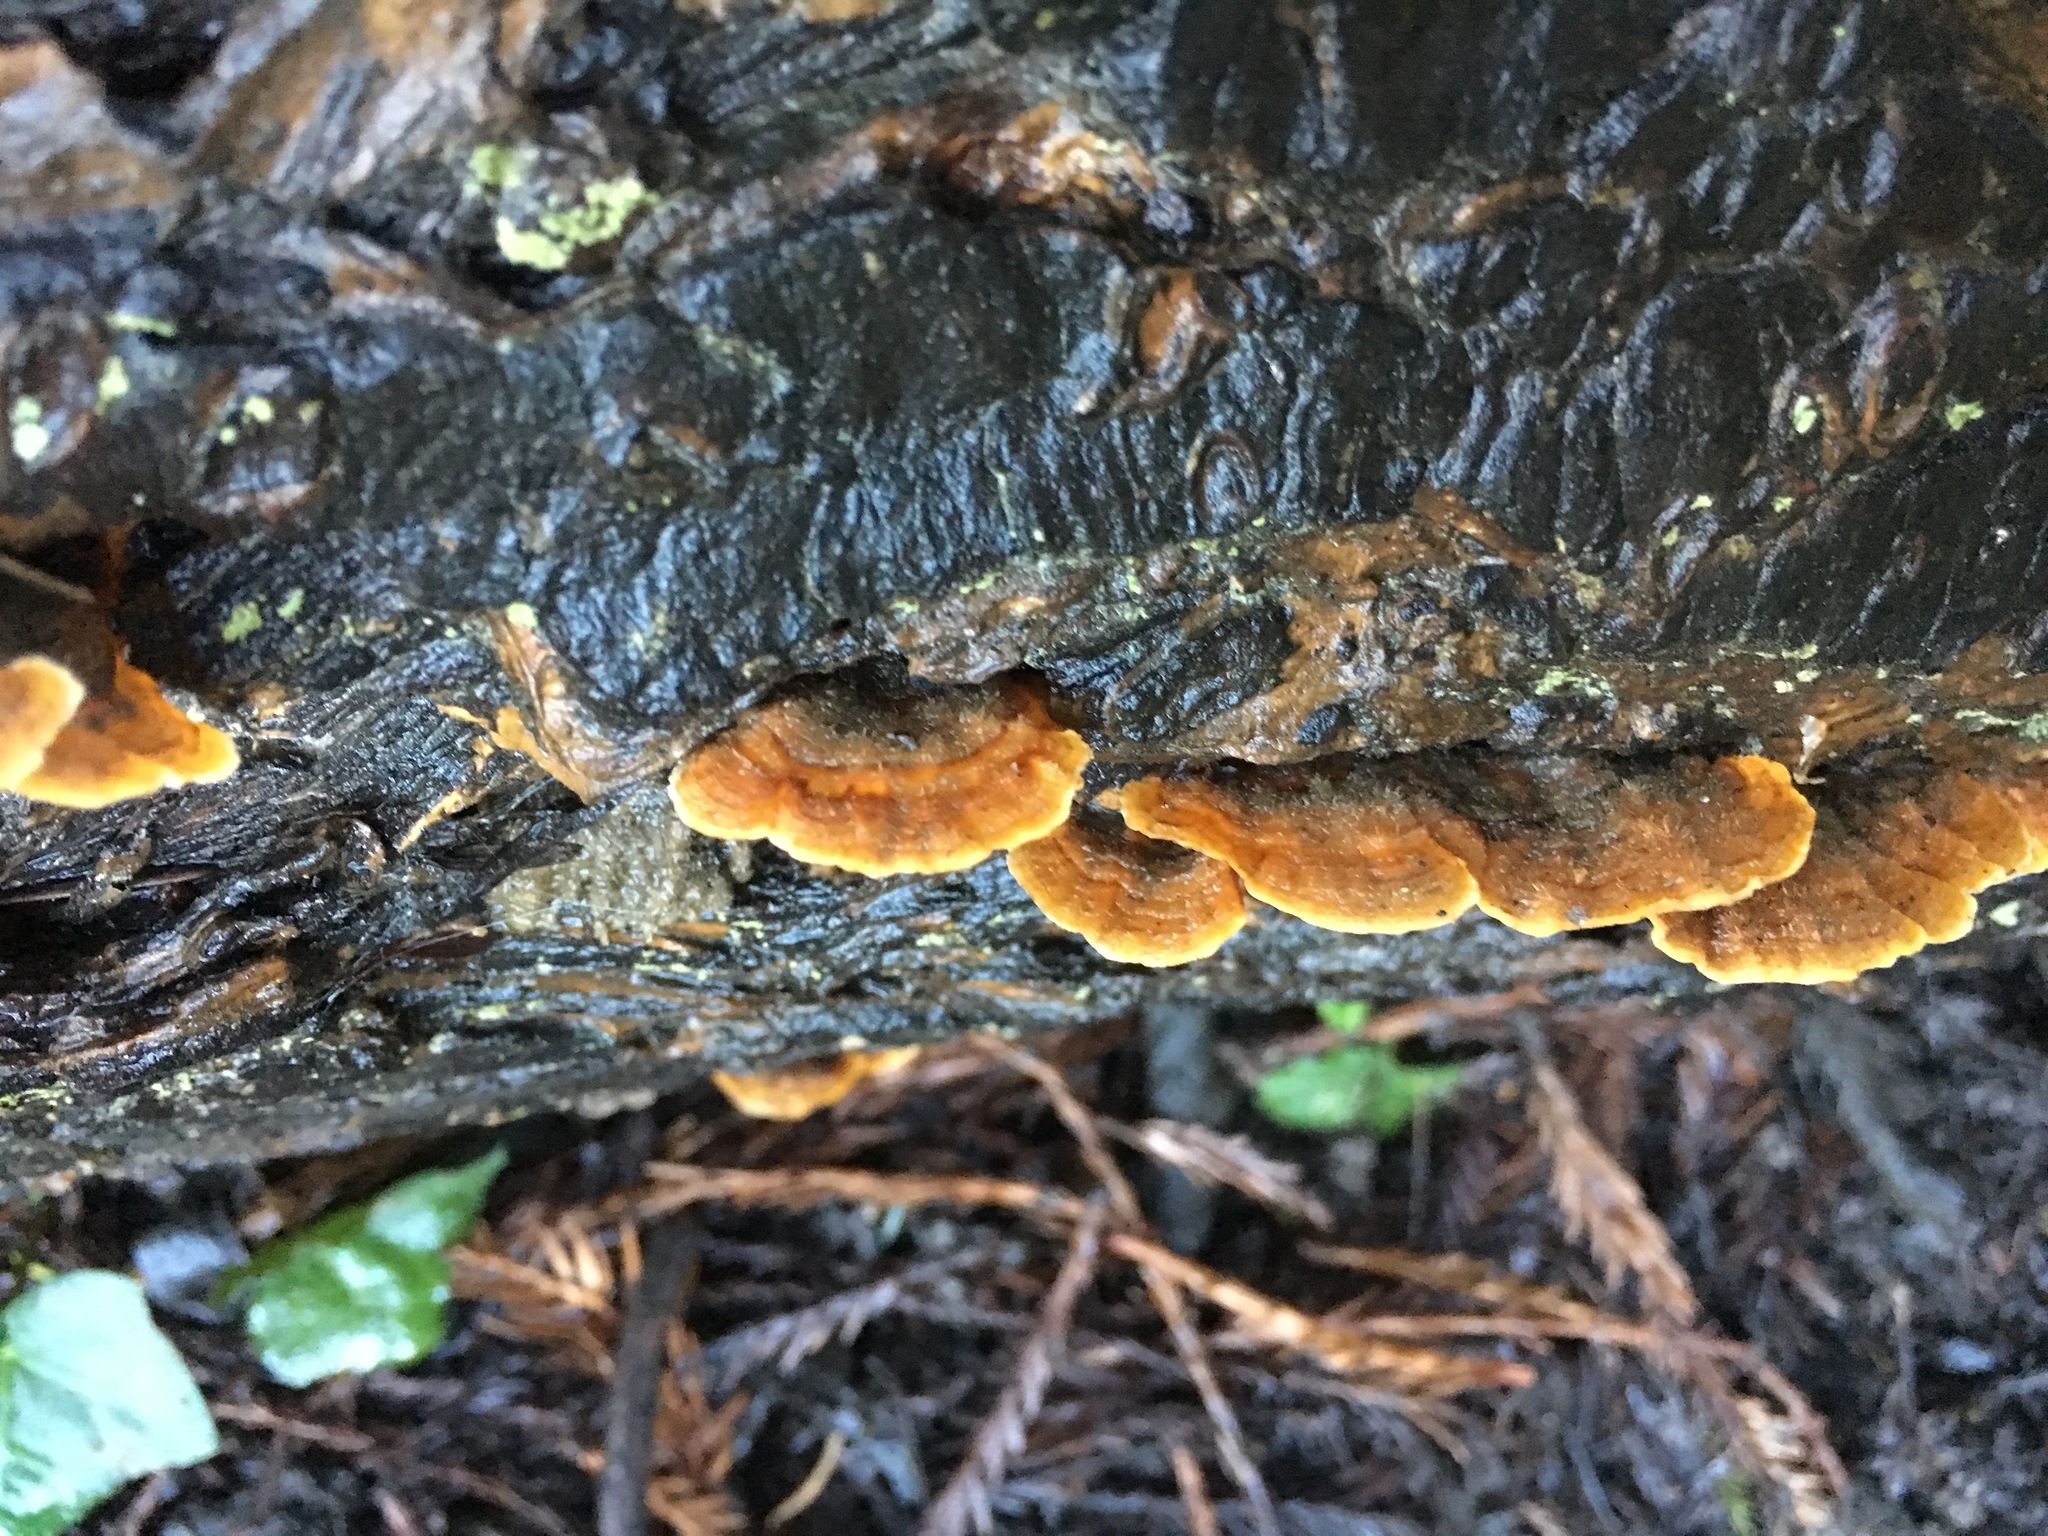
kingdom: Fungi
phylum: Basidiomycota
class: Agaricomycetes
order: Russulales
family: Stereaceae
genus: Stereum
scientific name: Stereum hirsutum
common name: Hairy curtain crust
